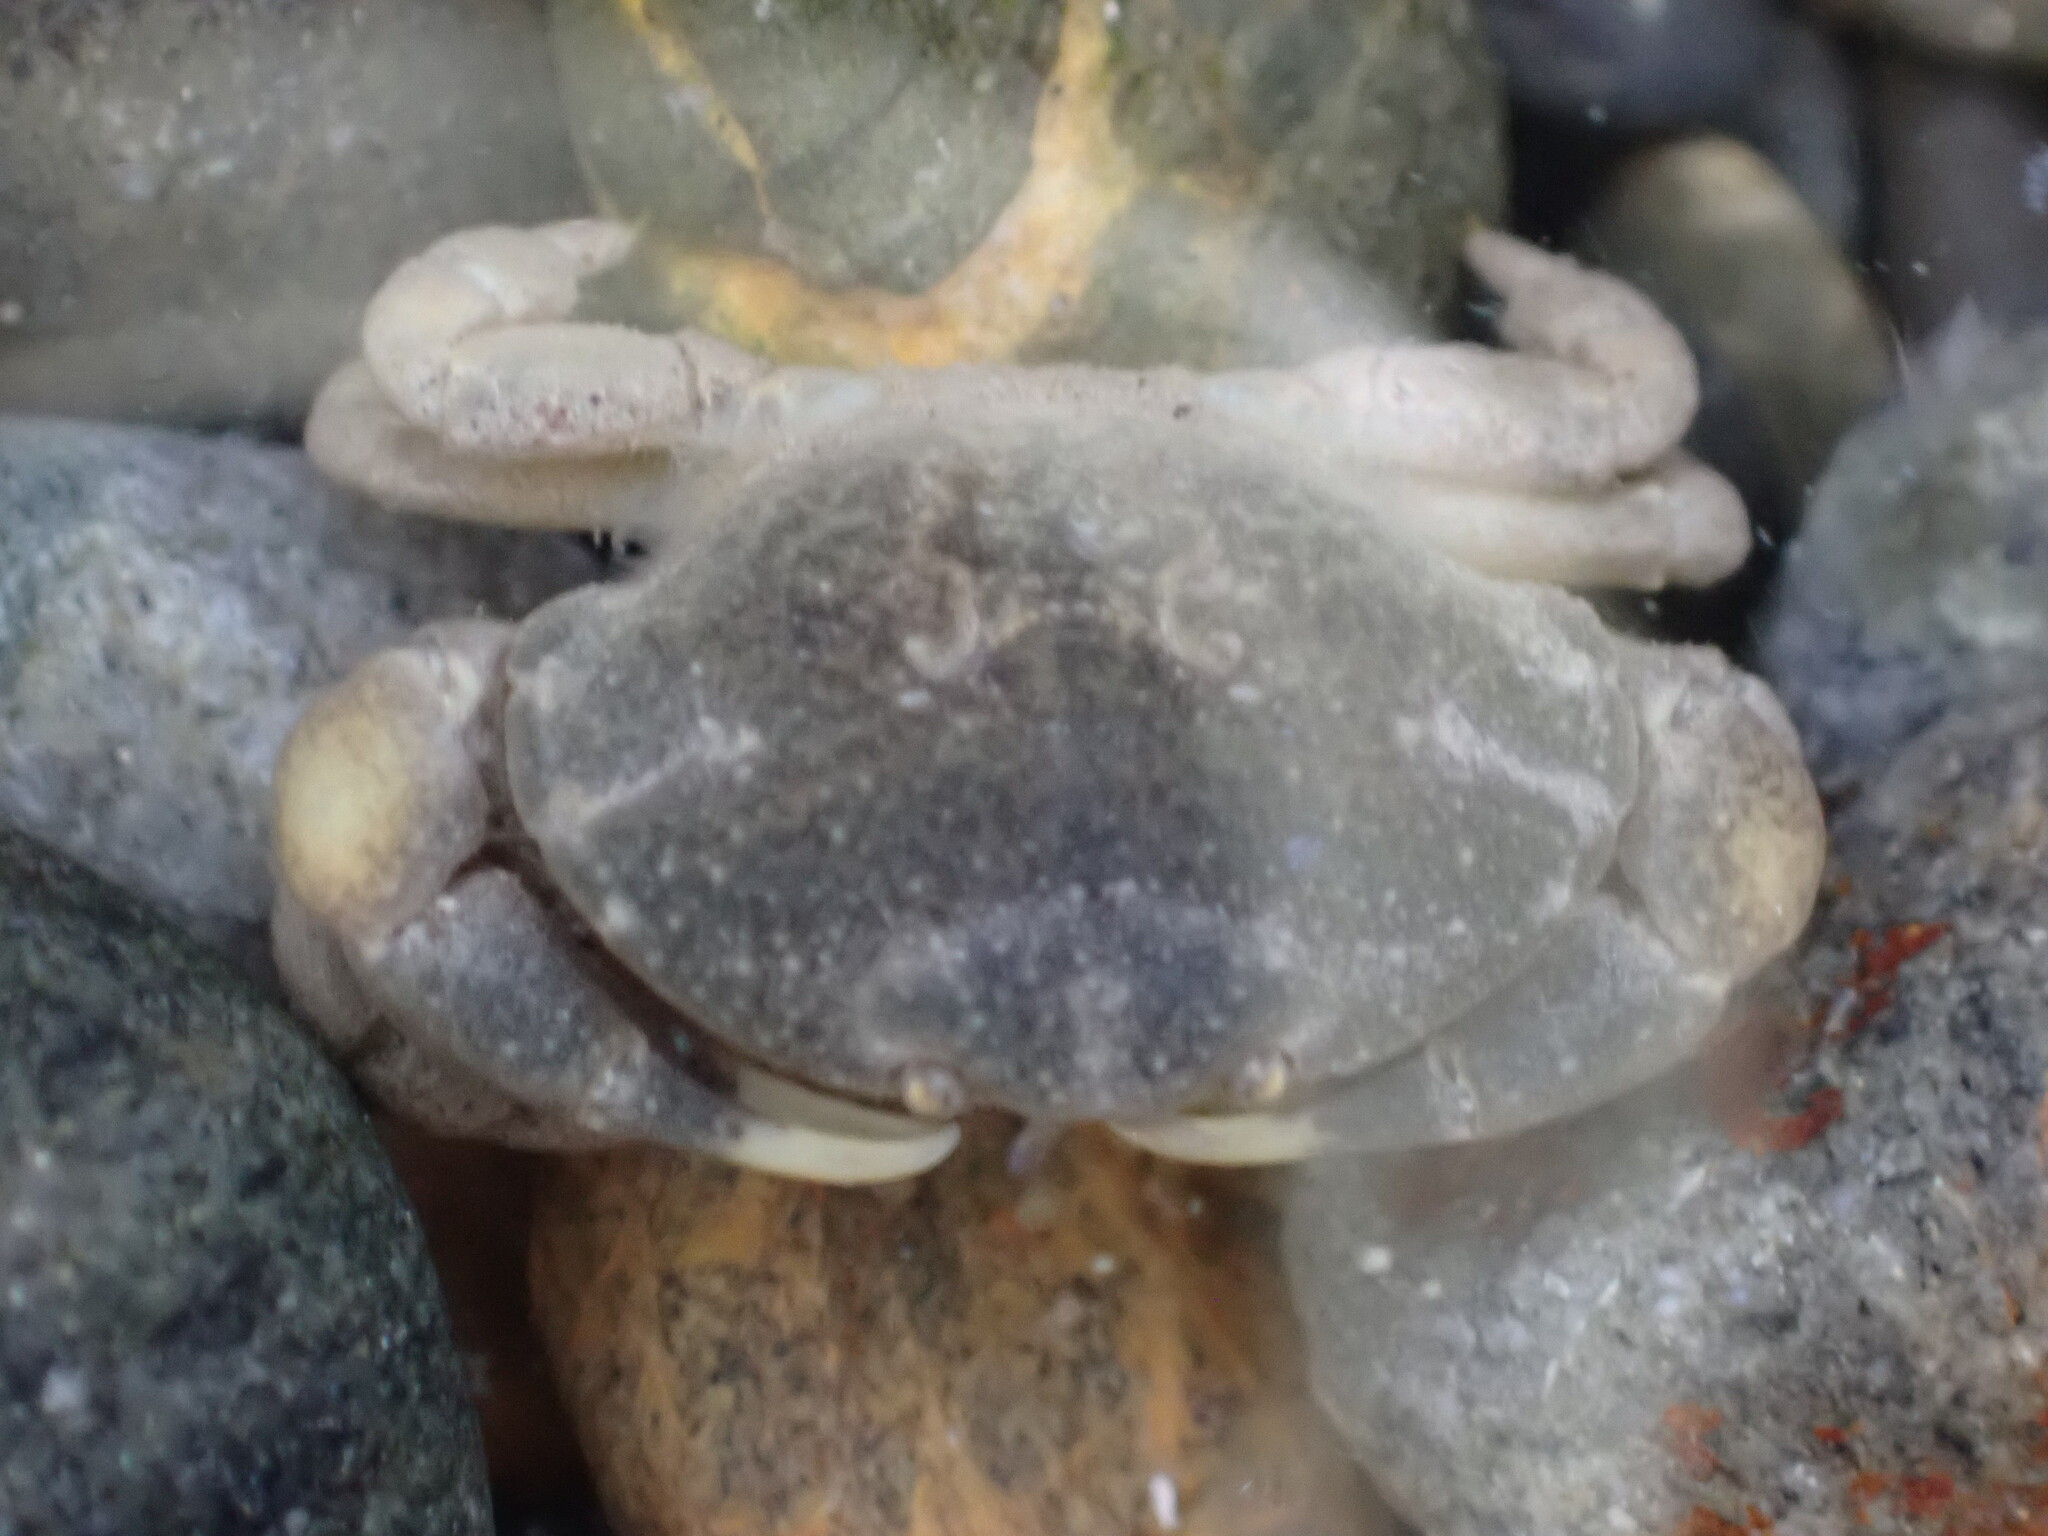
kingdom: Animalia
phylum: Arthropoda
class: Malacostraca
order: Decapoda
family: Heteroziidae
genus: Heterozius
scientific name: Heterozius rotundifrons
